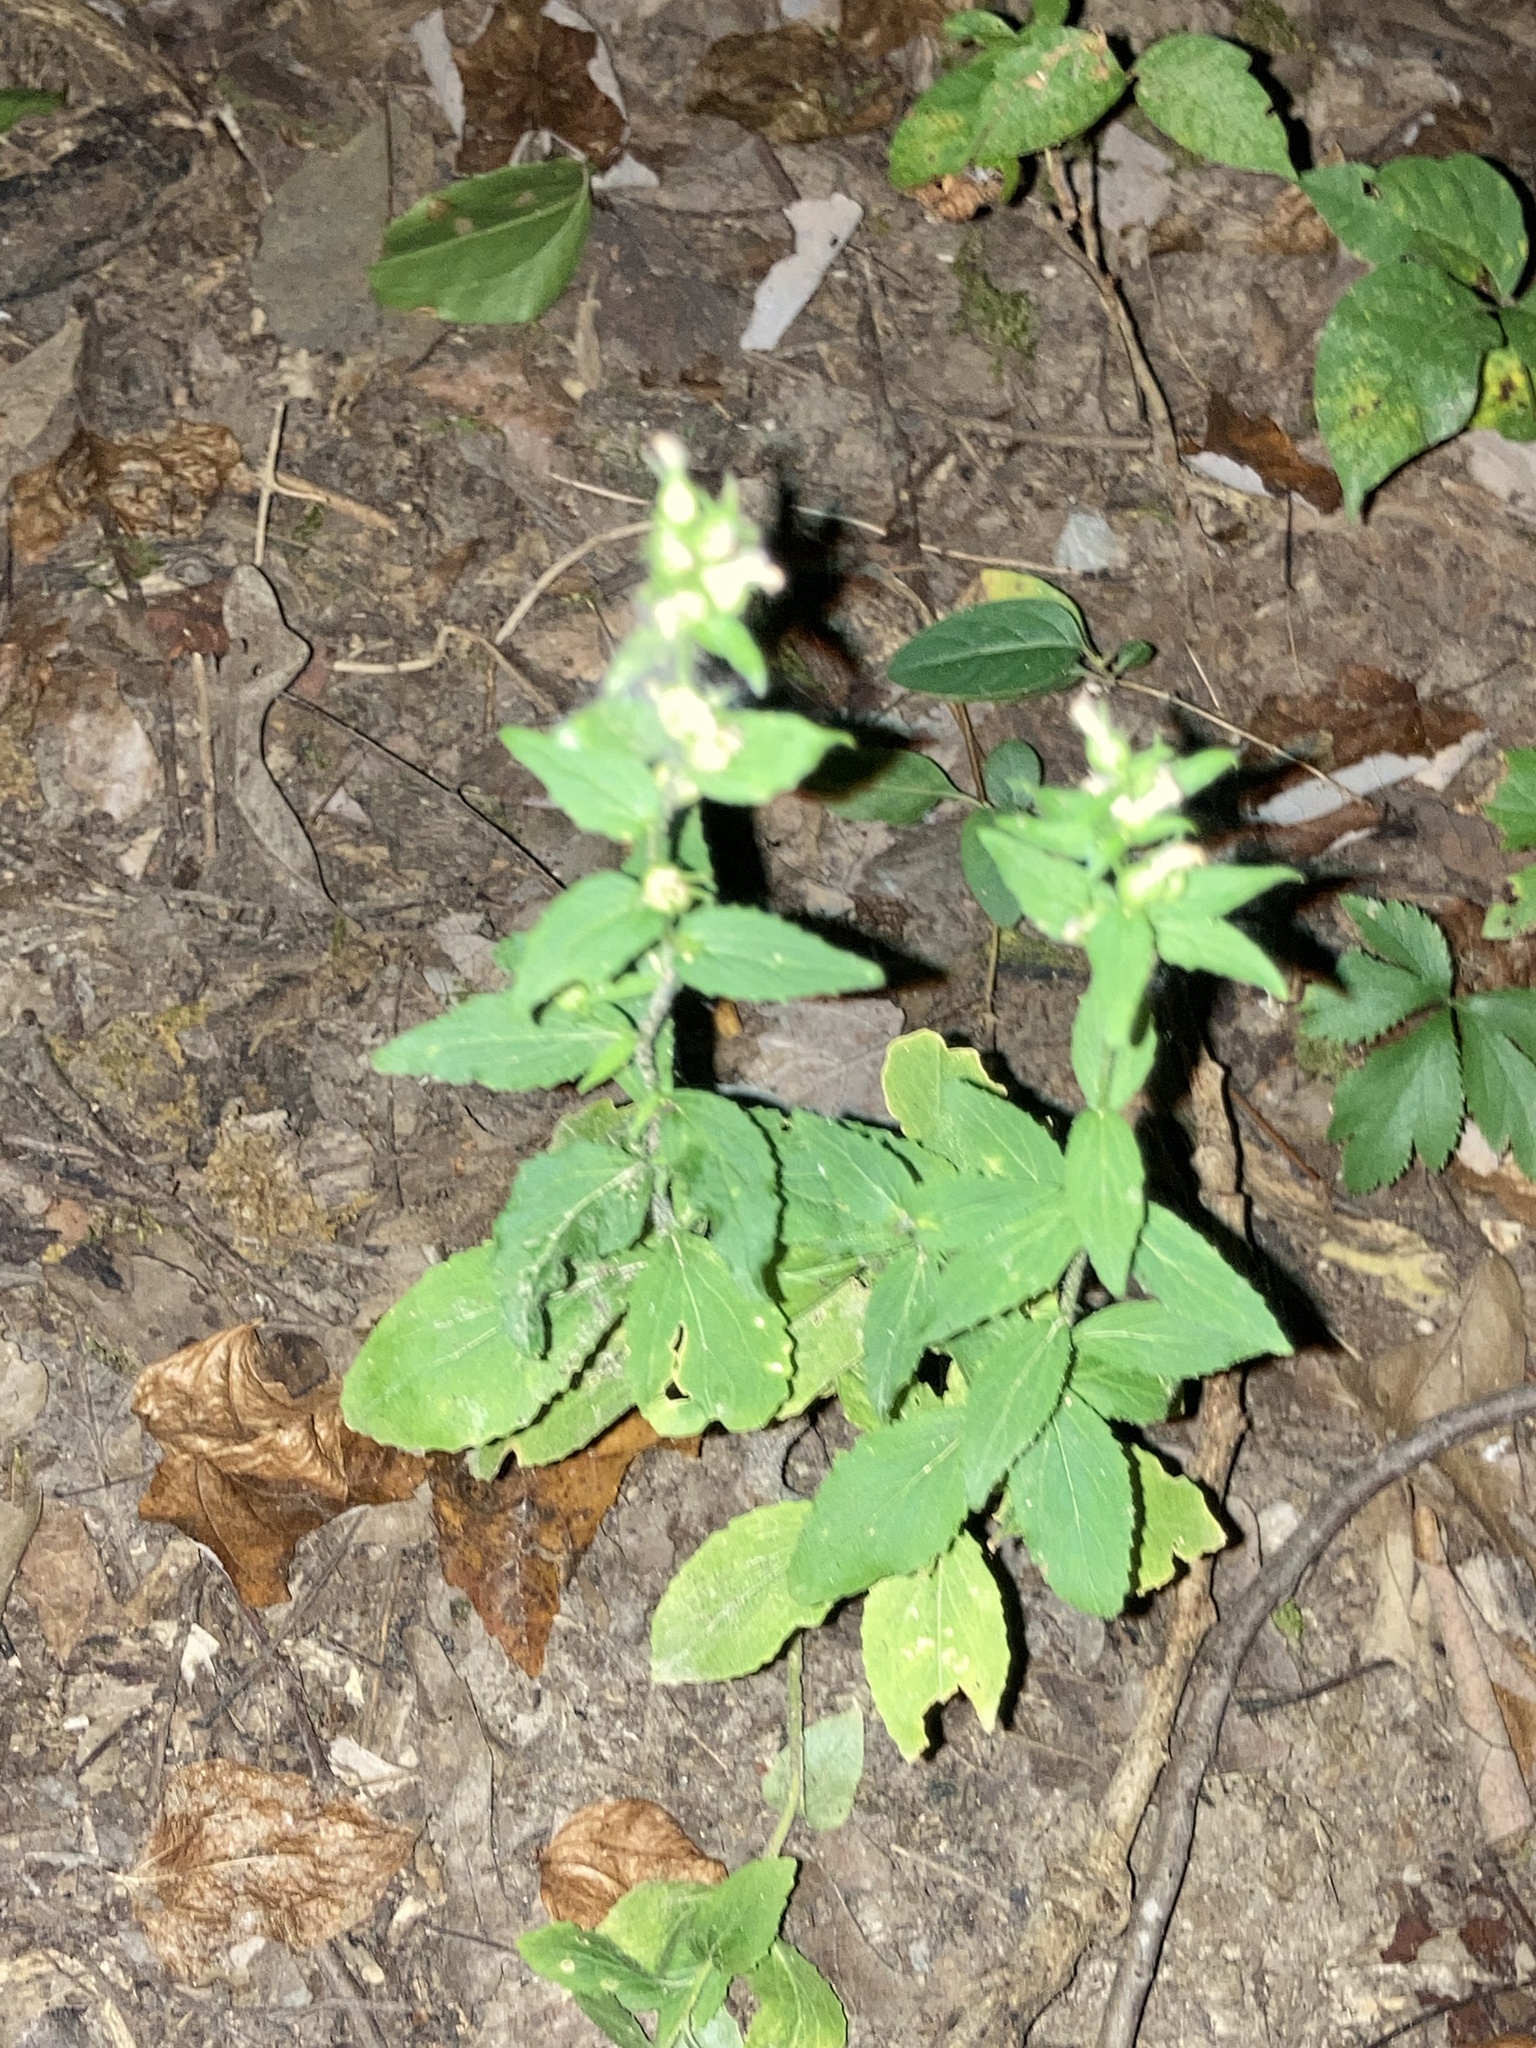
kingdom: Plantae
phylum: Tracheophyta
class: Magnoliopsida
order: Asterales
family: Campanulaceae
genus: Lobelia
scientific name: Lobelia inflata
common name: Indian tobacco
